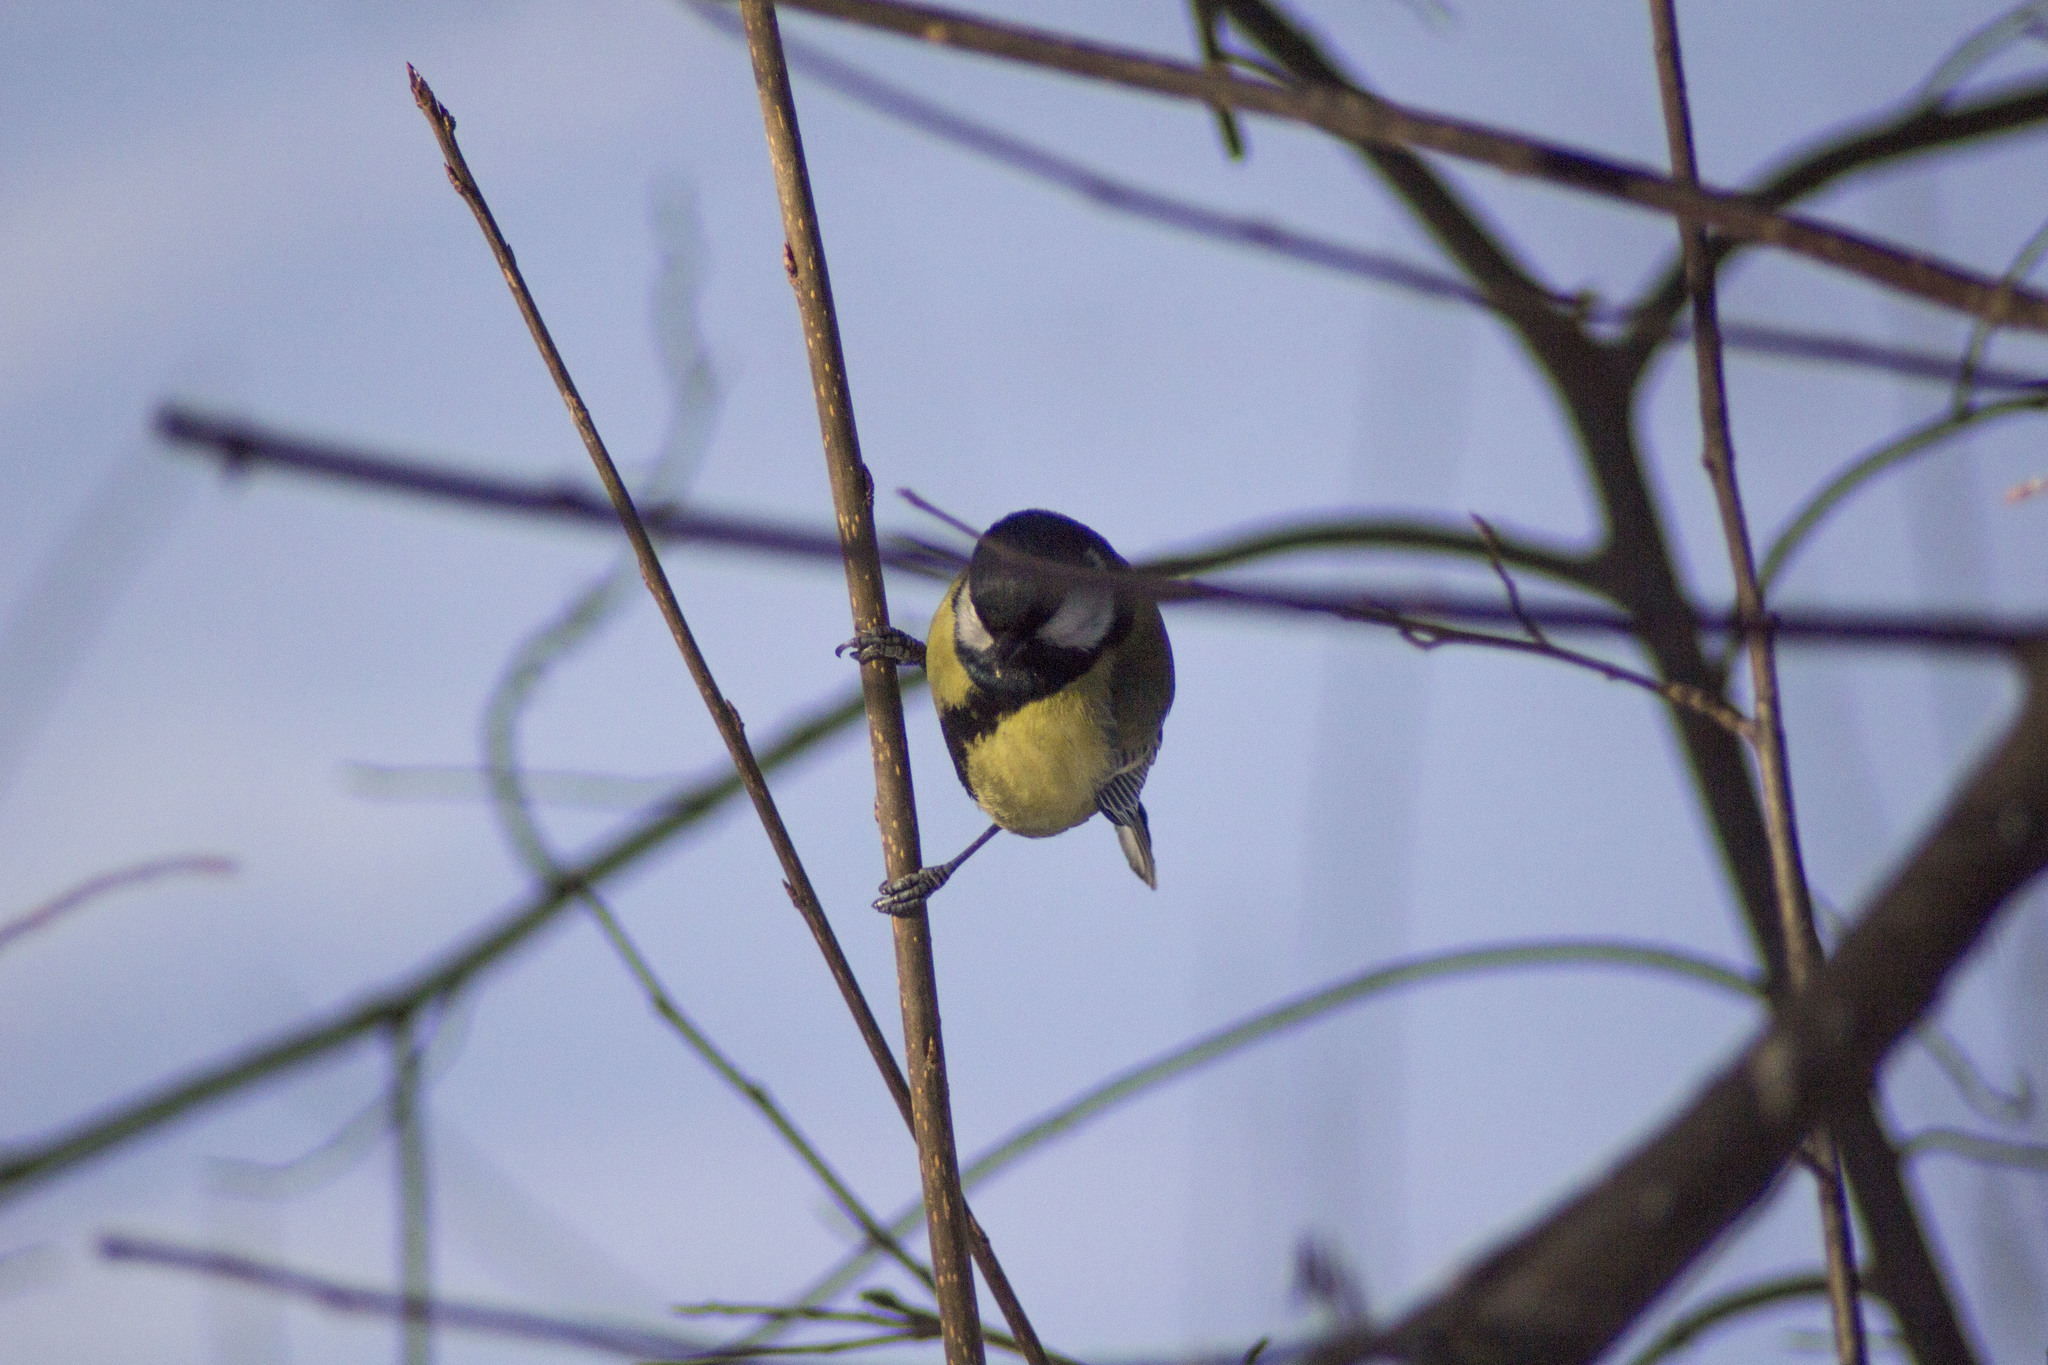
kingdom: Animalia
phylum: Chordata
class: Aves
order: Passeriformes
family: Paridae
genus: Parus
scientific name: Parus major
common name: Great tit
